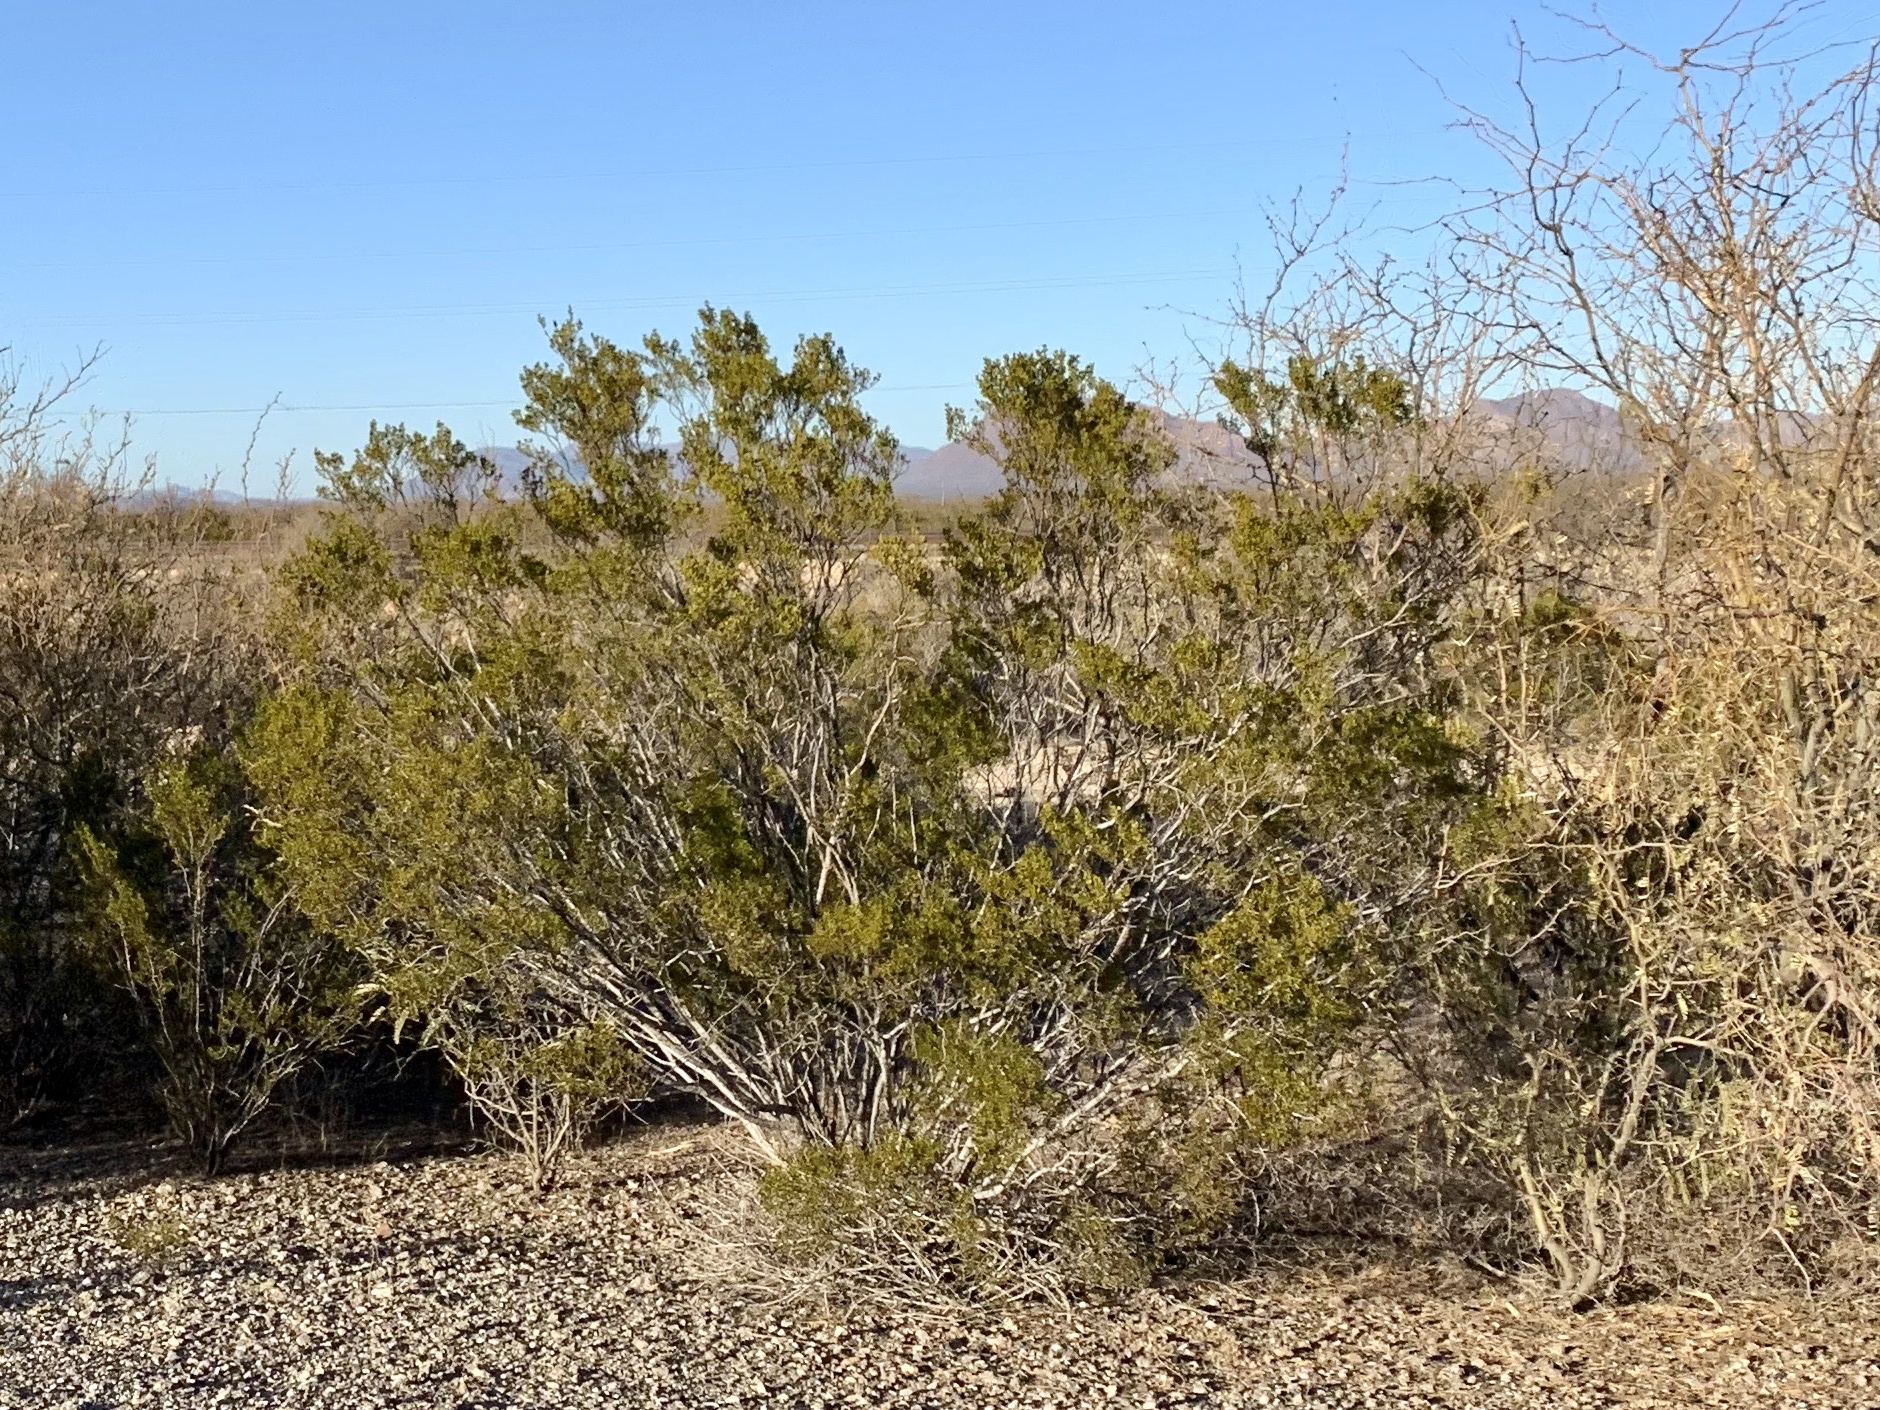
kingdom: Plantae
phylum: Tracheophyta
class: Magnoliopsida
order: Zygophyllales
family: Zygophyllaceae
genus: Larrea
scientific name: Larrea tridentata
